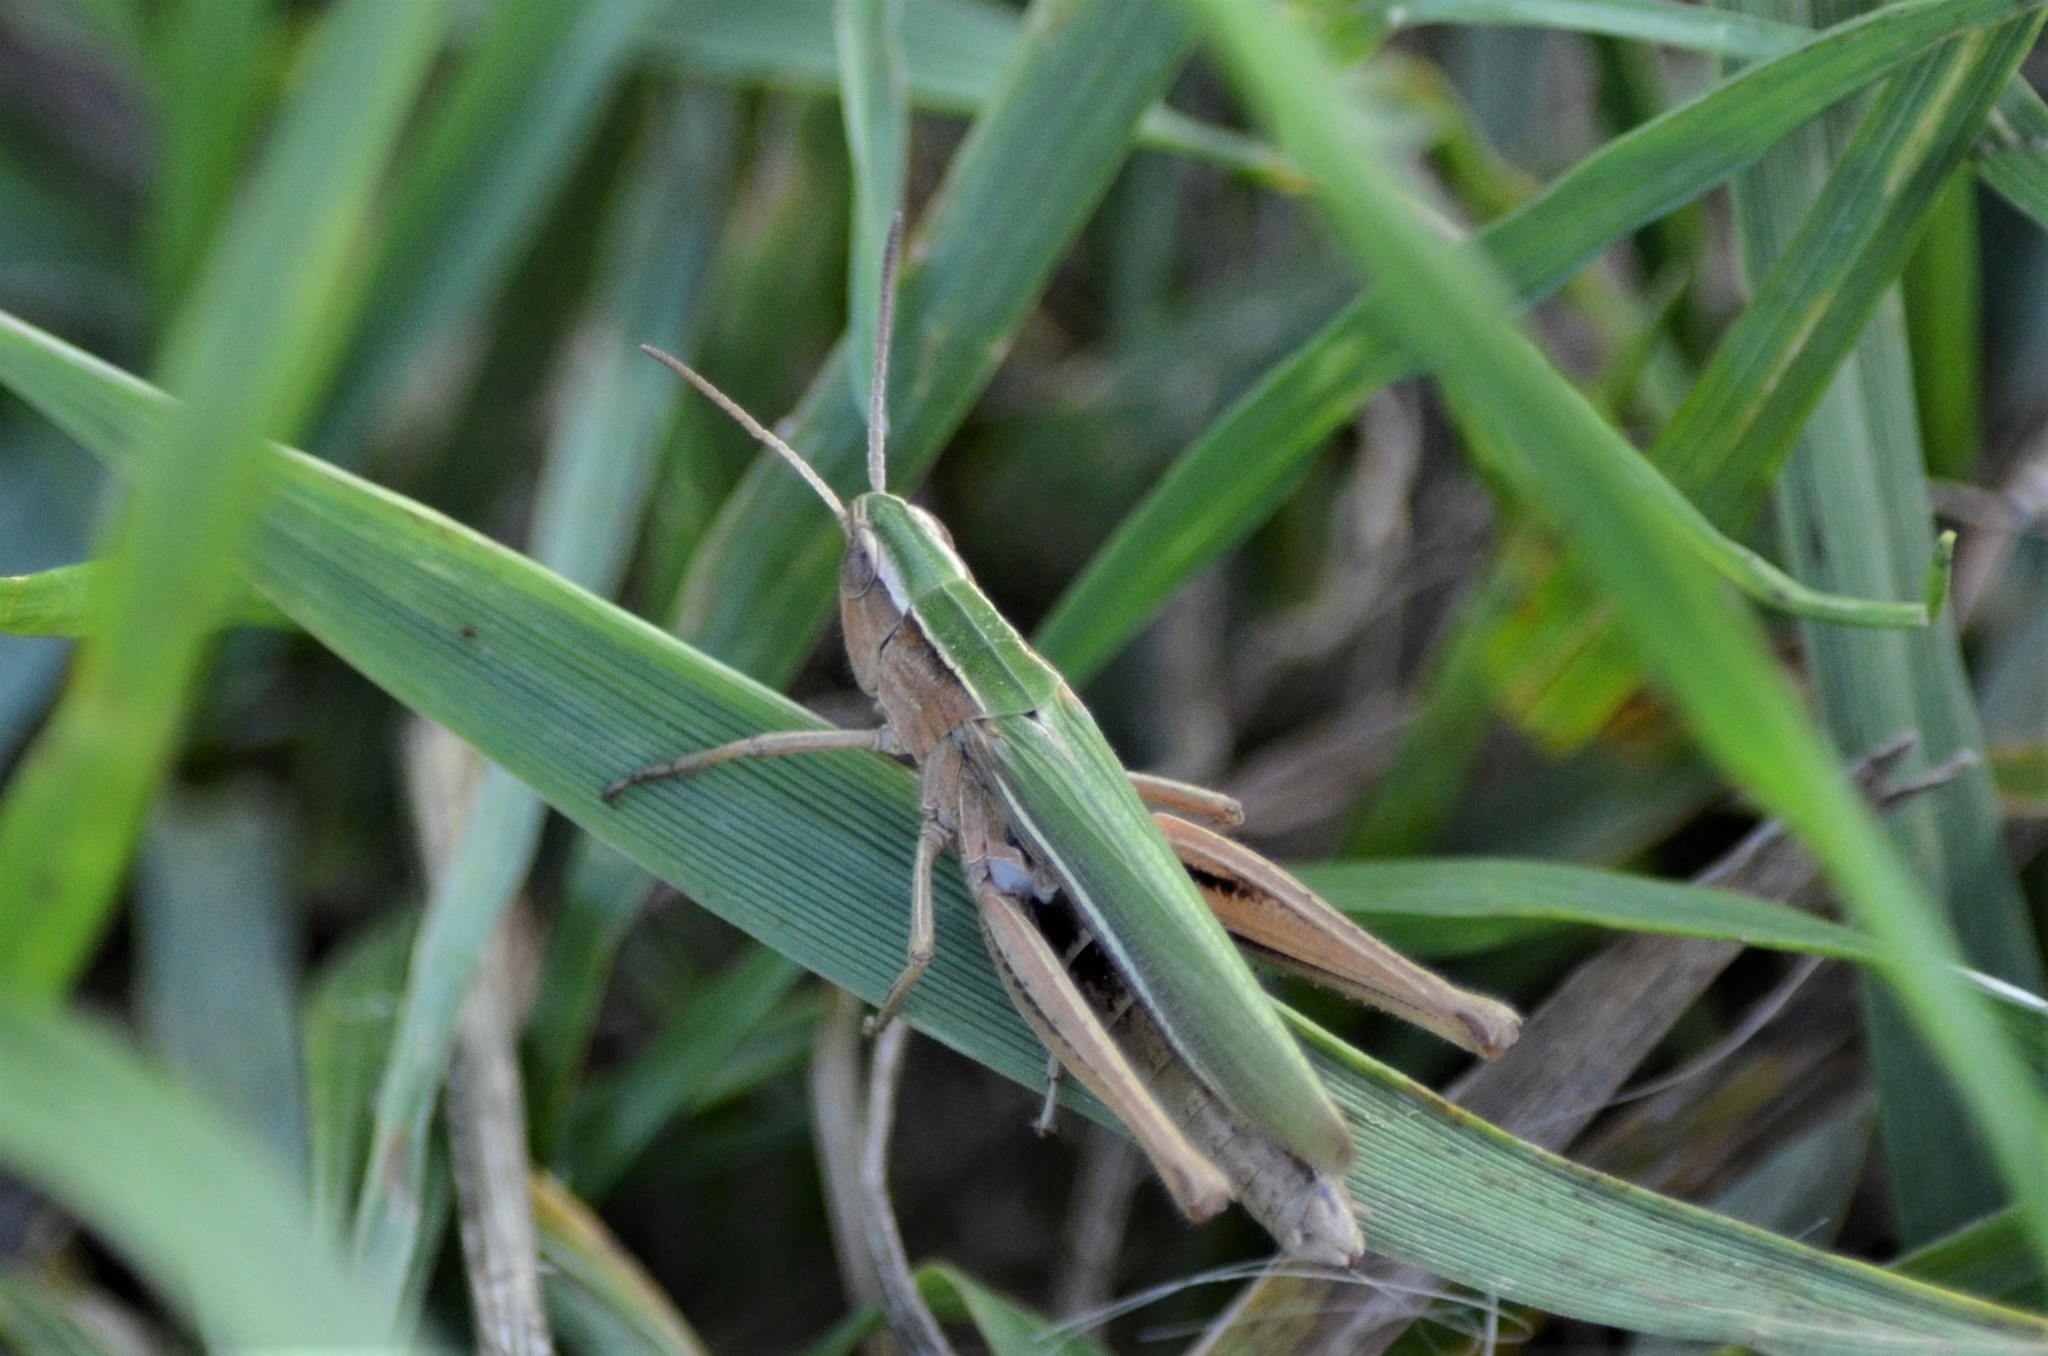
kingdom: Animalia
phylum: Arthropoda
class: Insecta
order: Orthoptera
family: Acrididae
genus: Chorthippus
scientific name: Chorthippus albomarginatus
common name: Lesser marsh grasshopper
